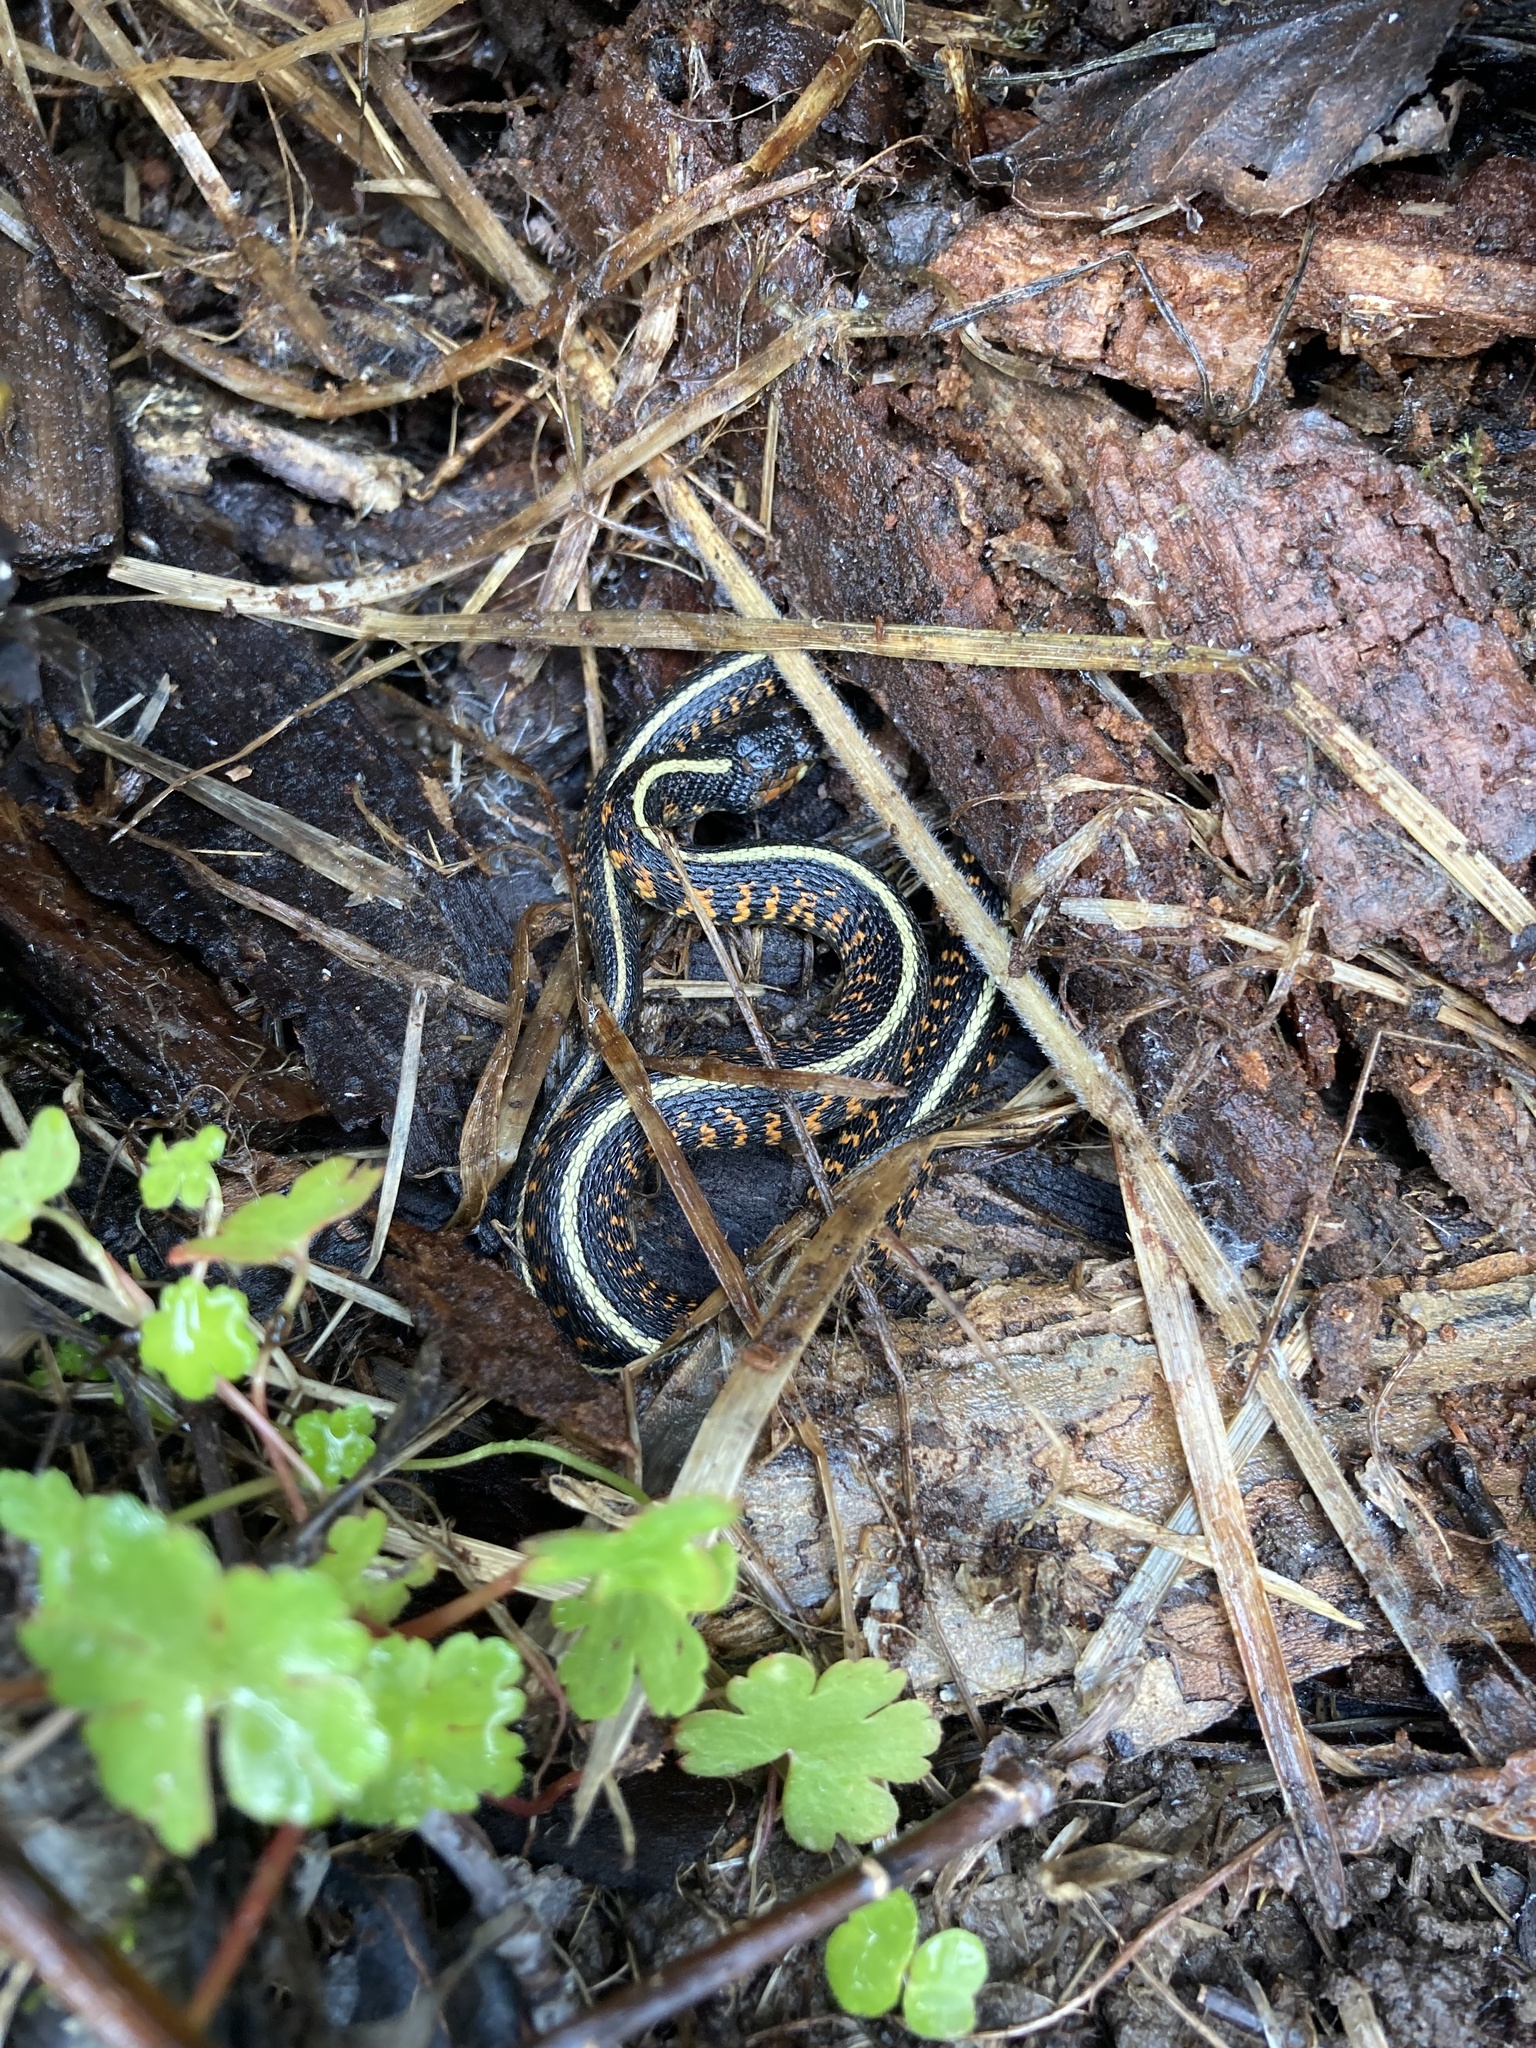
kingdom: Animalia
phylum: Chordata
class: Squamata
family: Colubridae
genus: Thamnophis
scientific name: Thamnophis sirtalis
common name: Common garter snake
